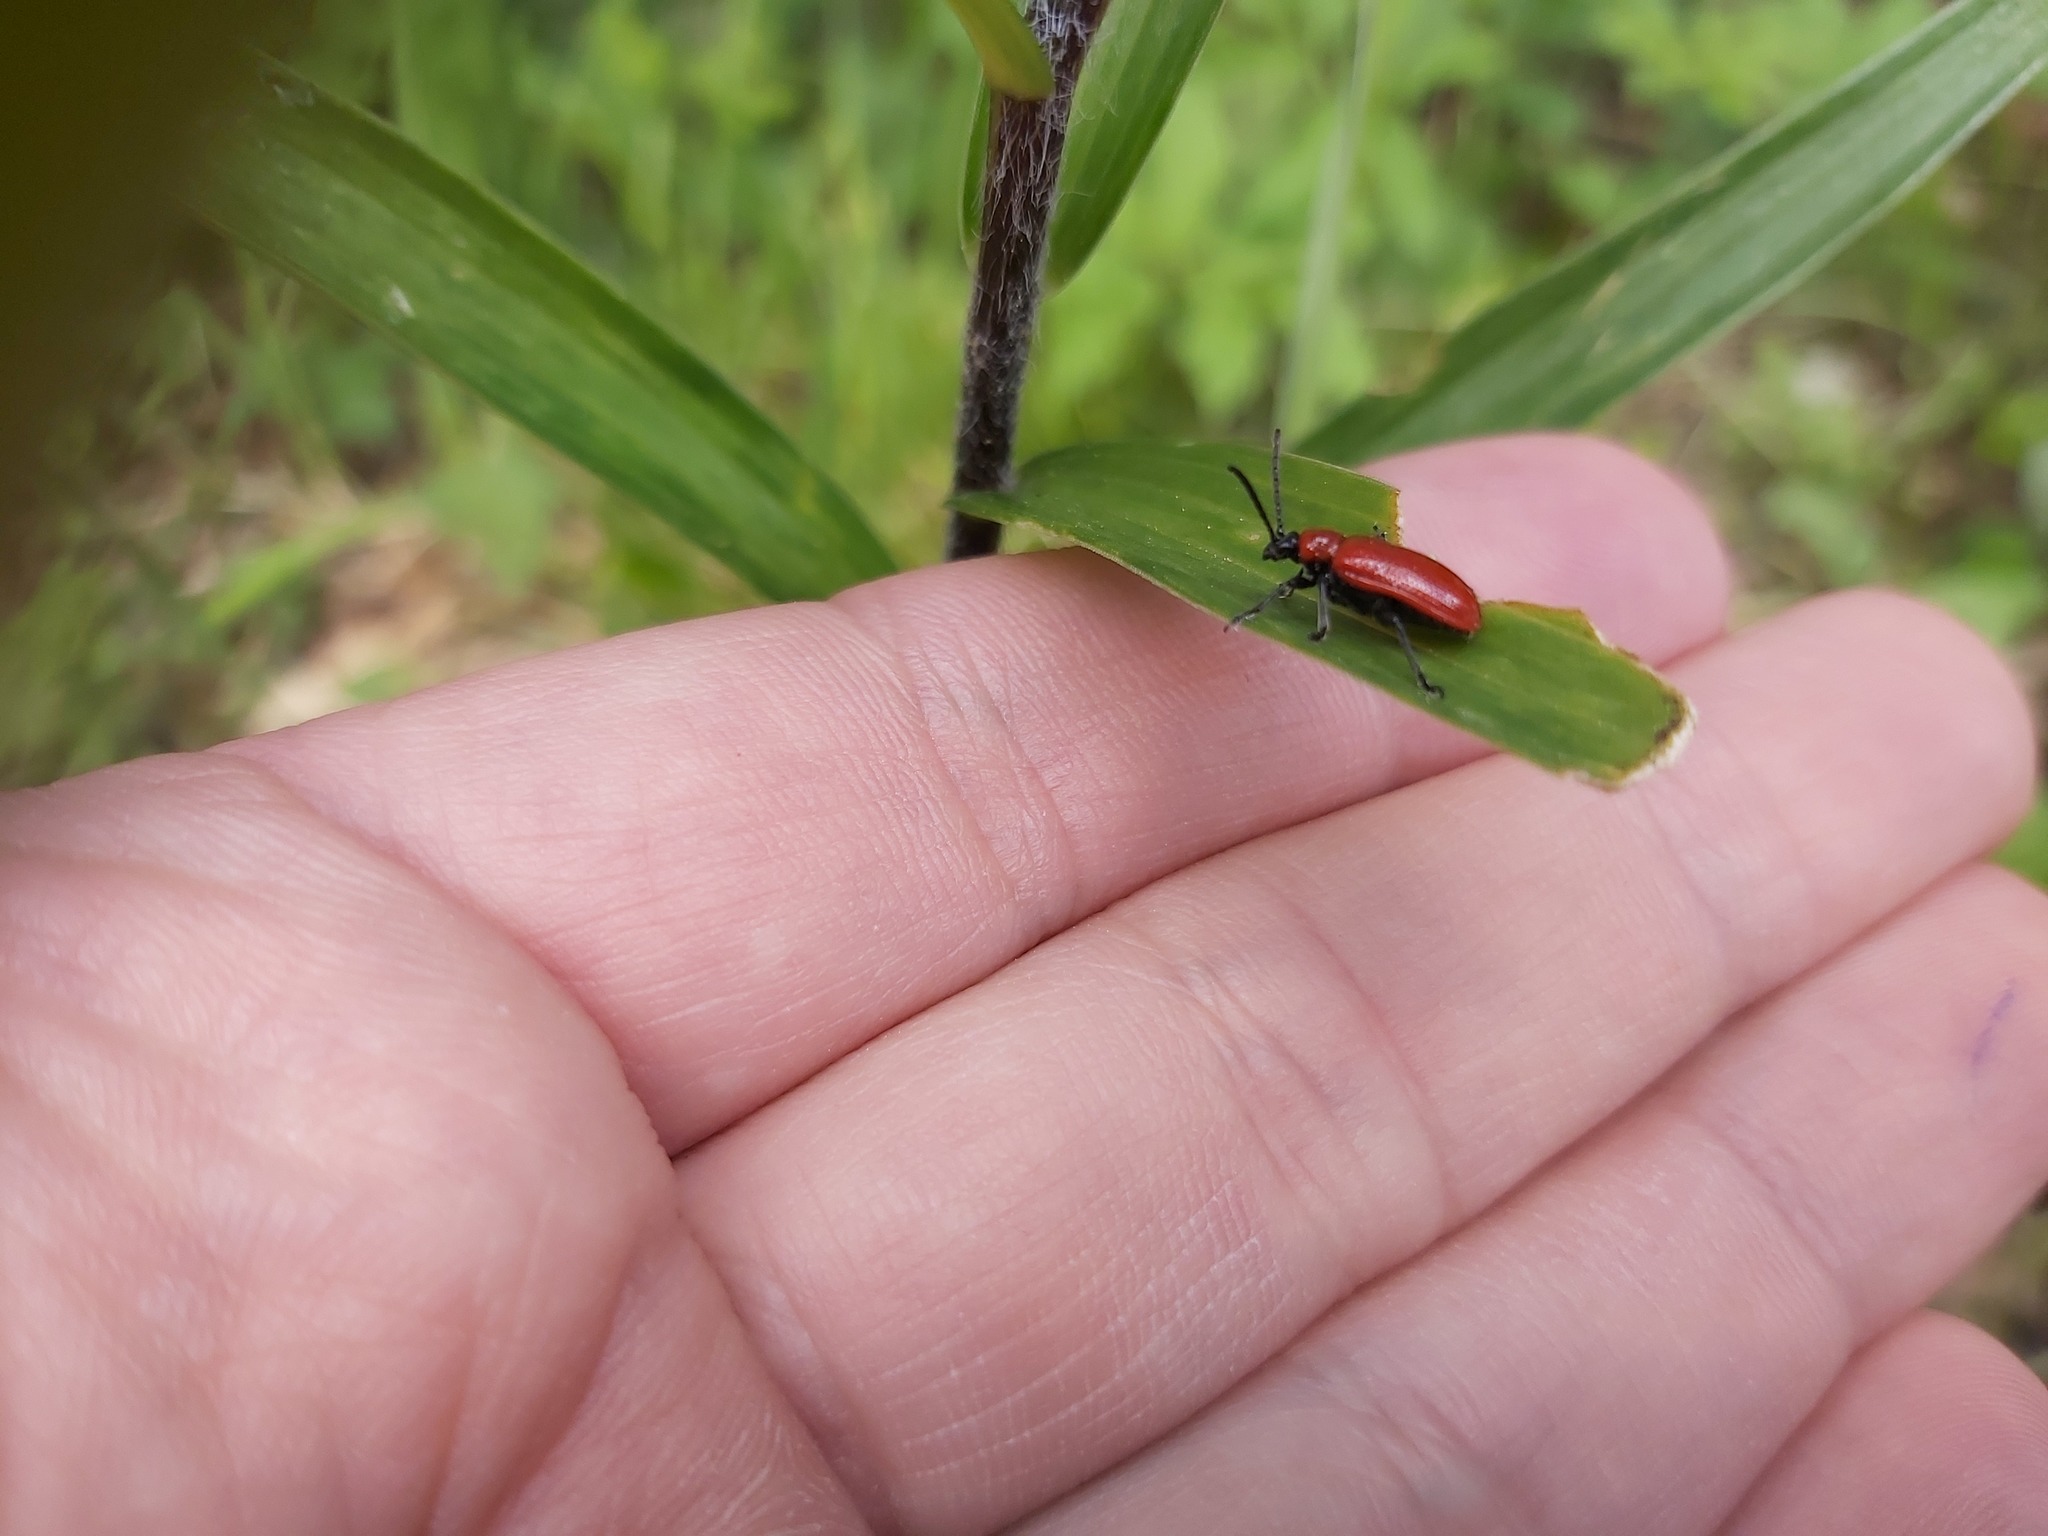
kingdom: Animalia
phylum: Arthropoda
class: Insecta
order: Coleoptera
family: Chrysomelidae
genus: Lilioceris
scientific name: Lilioceris lilii
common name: Lily beetle
